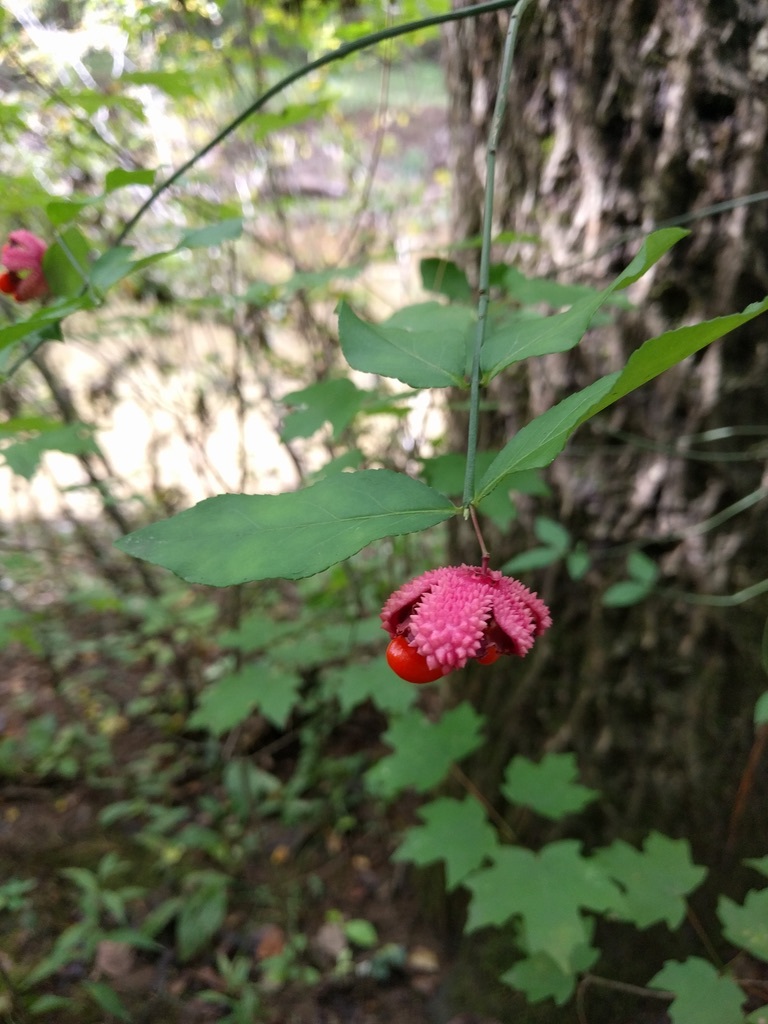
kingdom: Plantae
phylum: Tracheophyta
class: Magnoliopsida
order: Celastrales
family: Celastraceae
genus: Euonymus
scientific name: Euonymus americanus
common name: Bursting-heart
